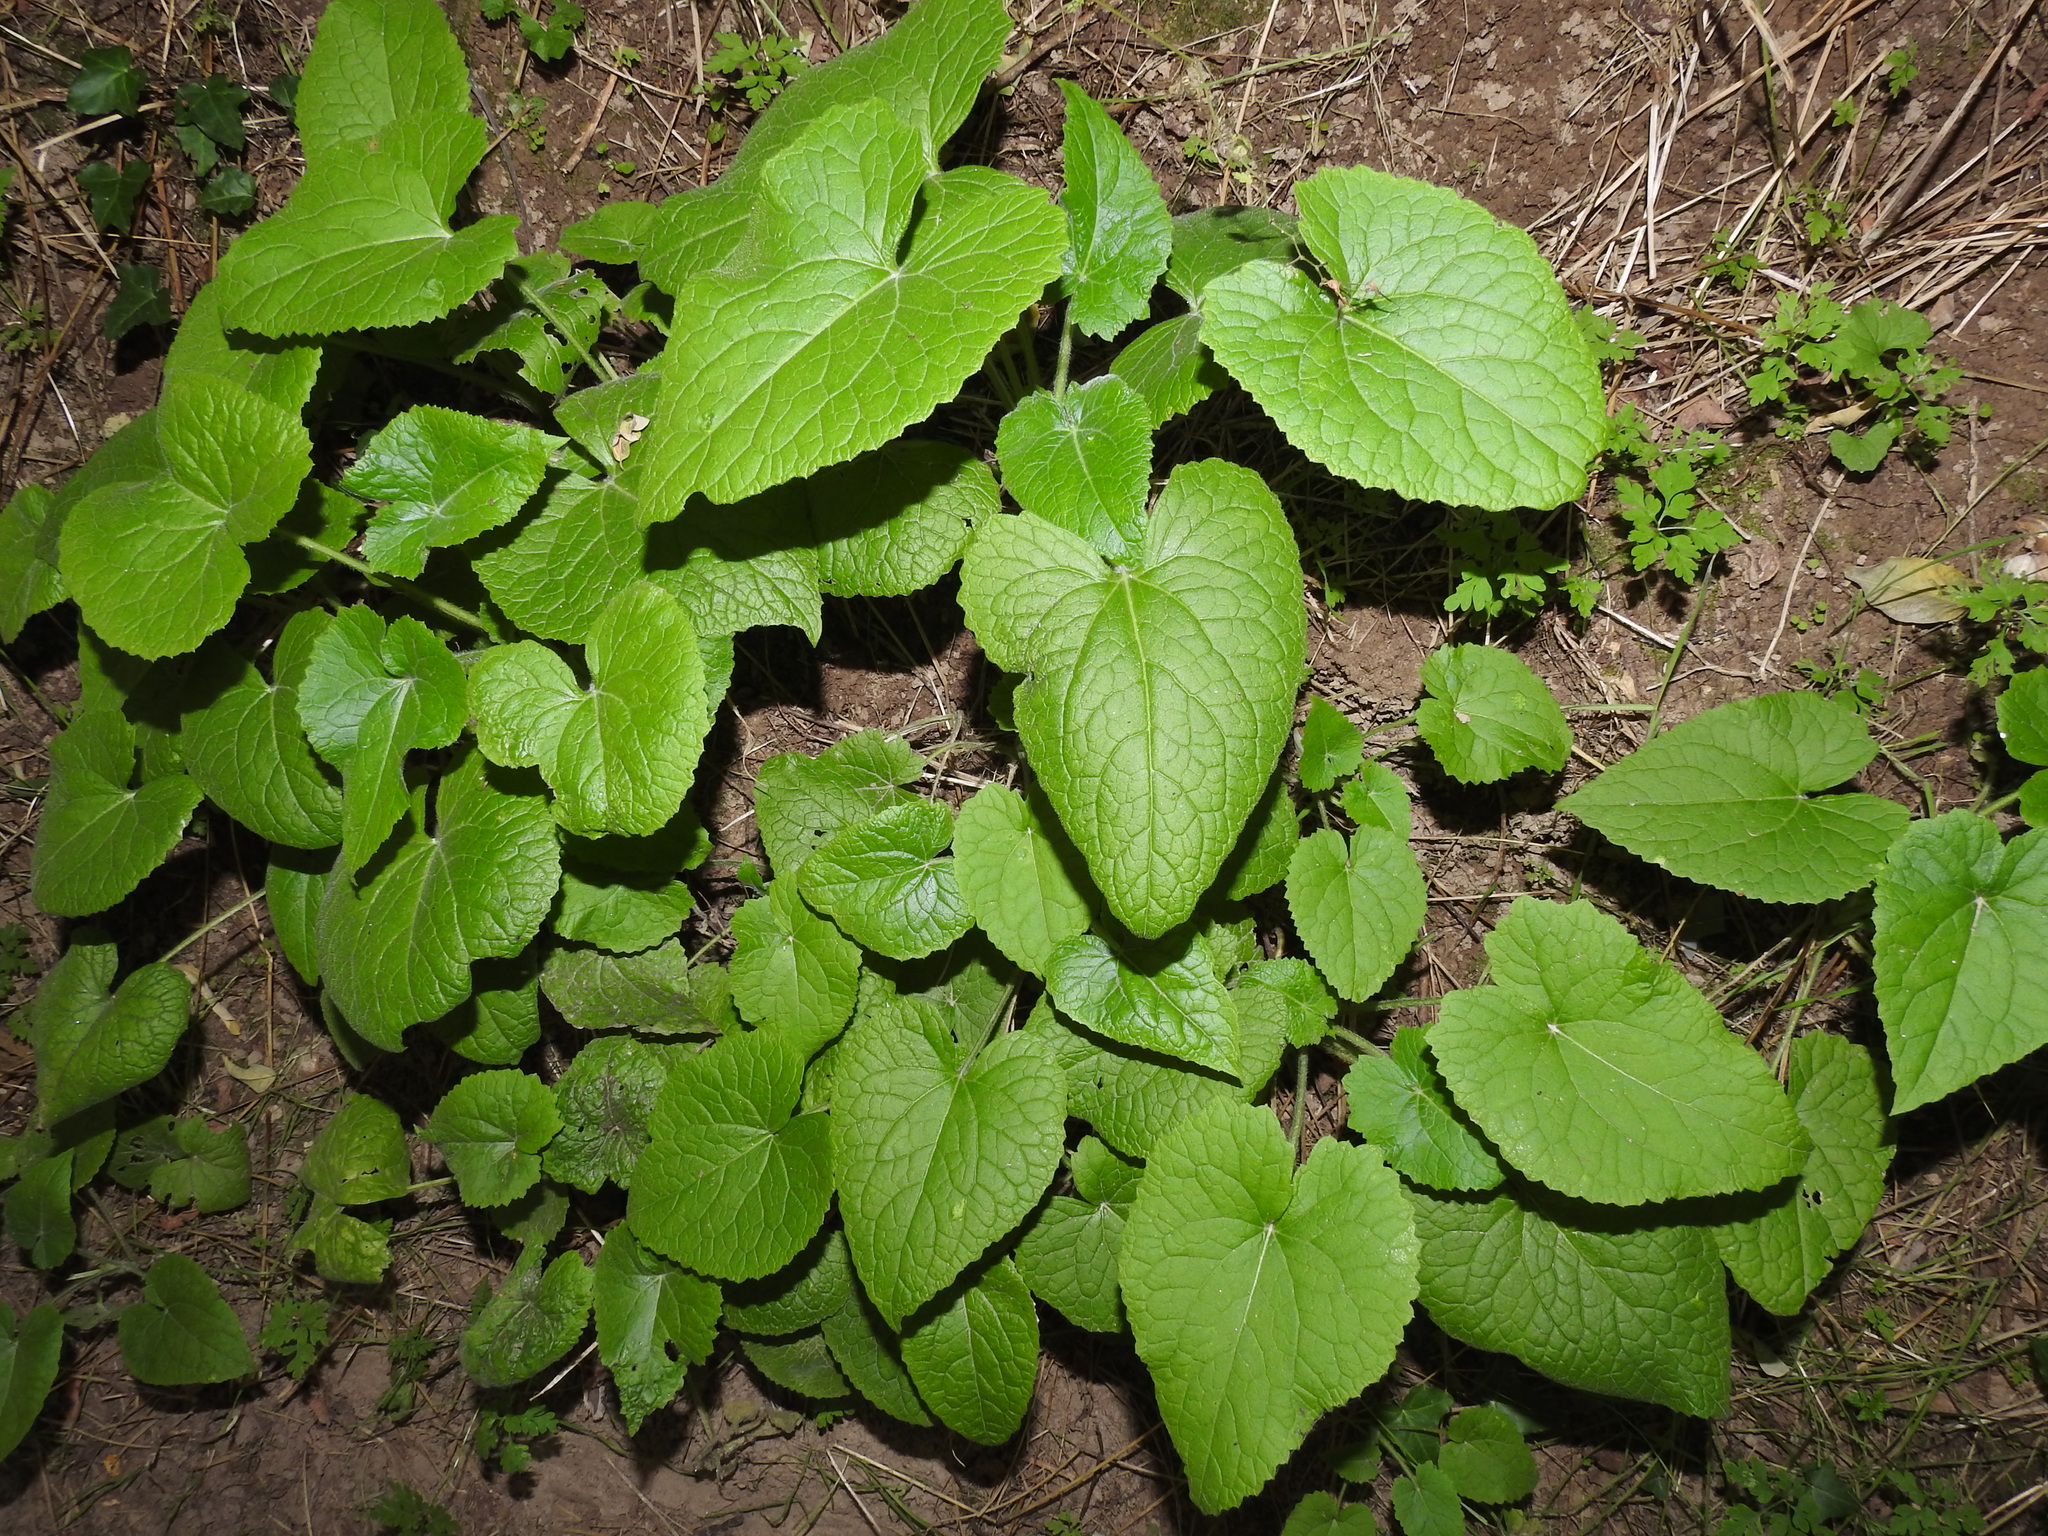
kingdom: Plantae
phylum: Tracheophyta
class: Magnoliopsida
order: Brassicales
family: Brassicaceae
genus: Lunaria
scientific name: Lunaria annua
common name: Honesty
